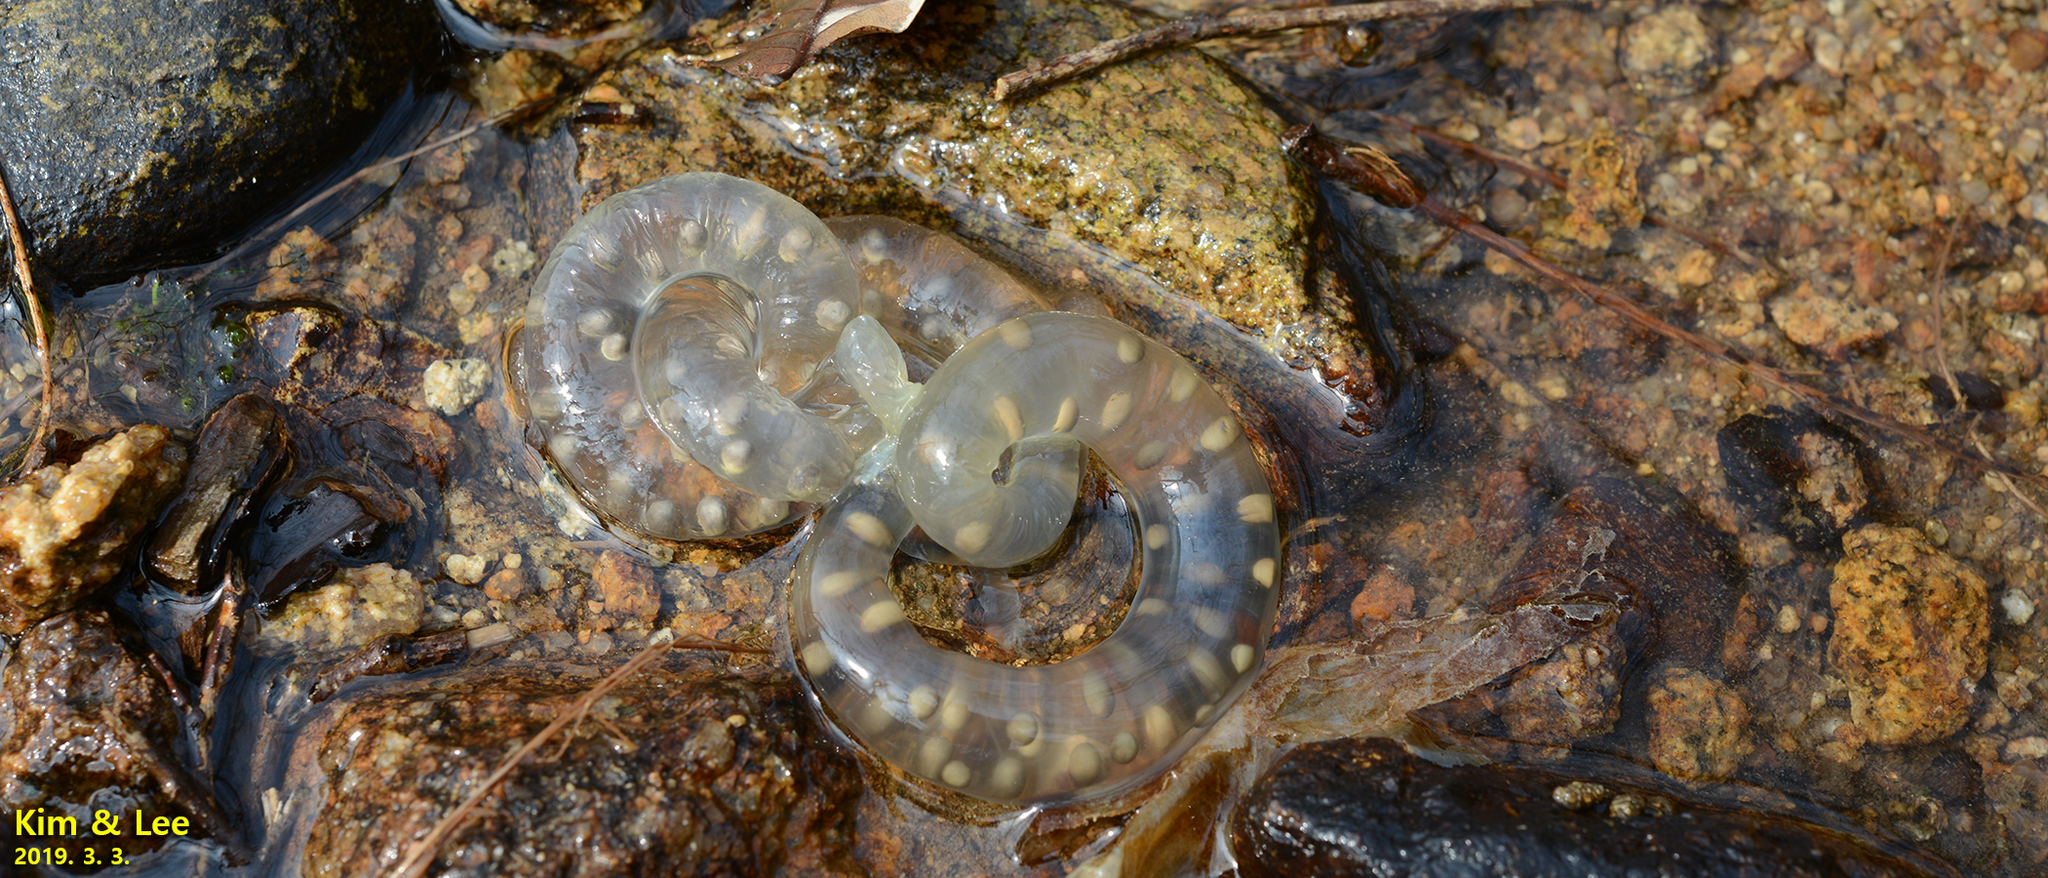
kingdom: Animalia
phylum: Chordata
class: Amphibia
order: Caudata
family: Hynobiidae
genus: Hynobius
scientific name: Hynobius perplicatus
